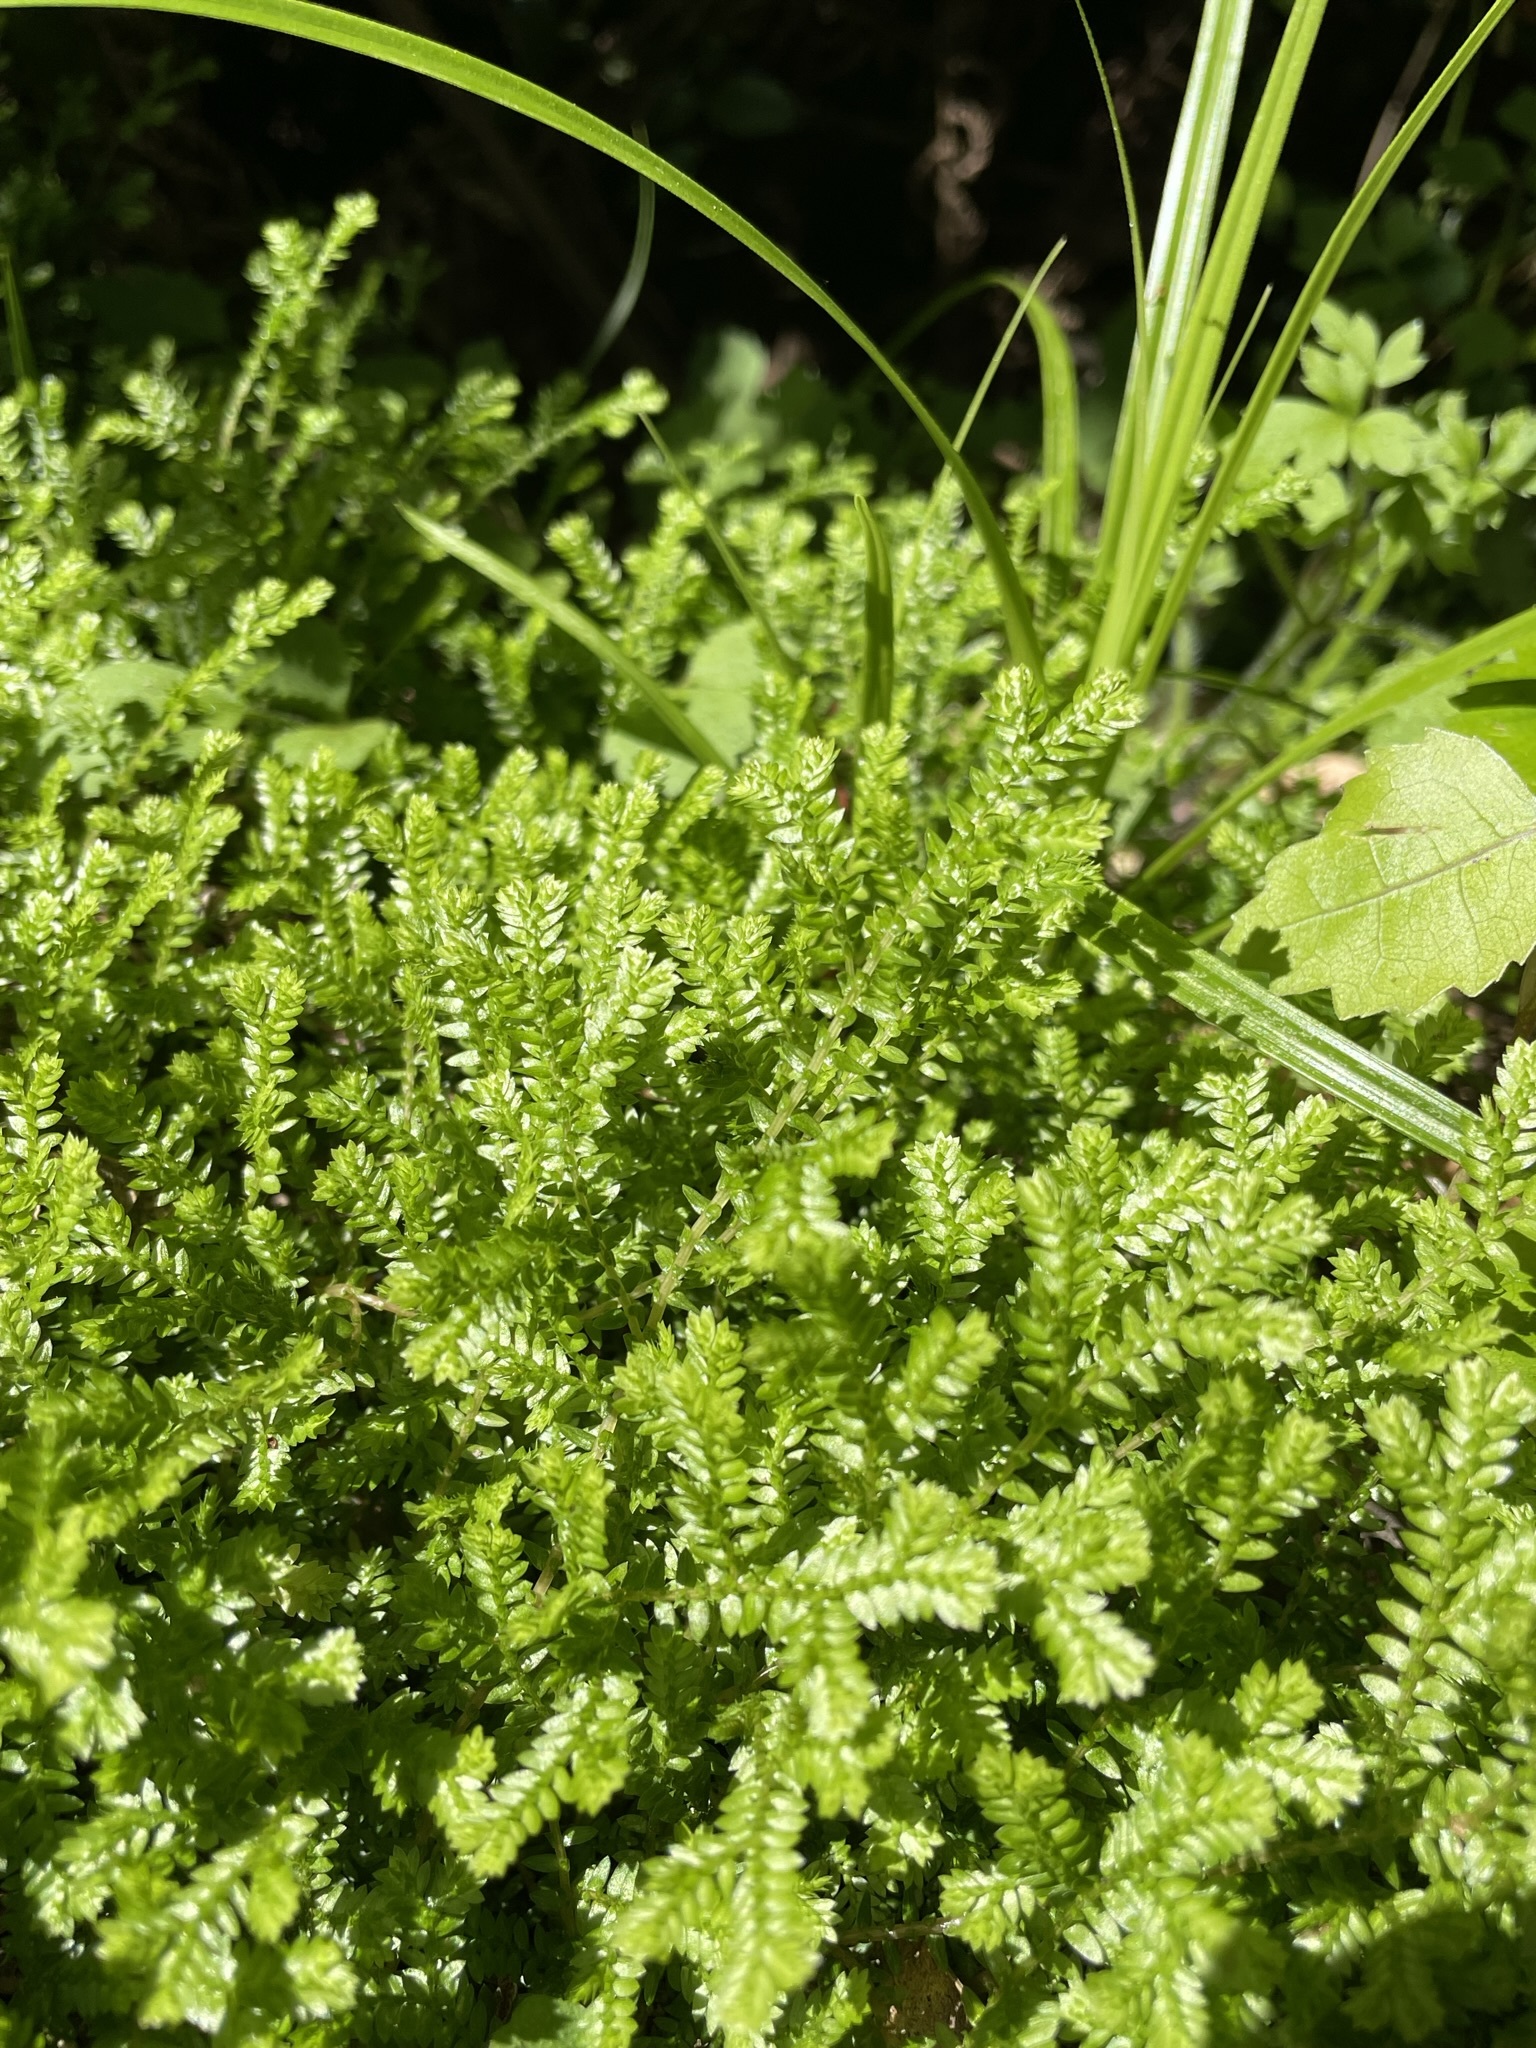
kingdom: Plantae
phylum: Tracheophyta
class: Lycopodiopsida
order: Selaginellales
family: Selaginellaceae
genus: Selaginella
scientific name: Selaginella kraussiana
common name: Krauss' spikemoss
